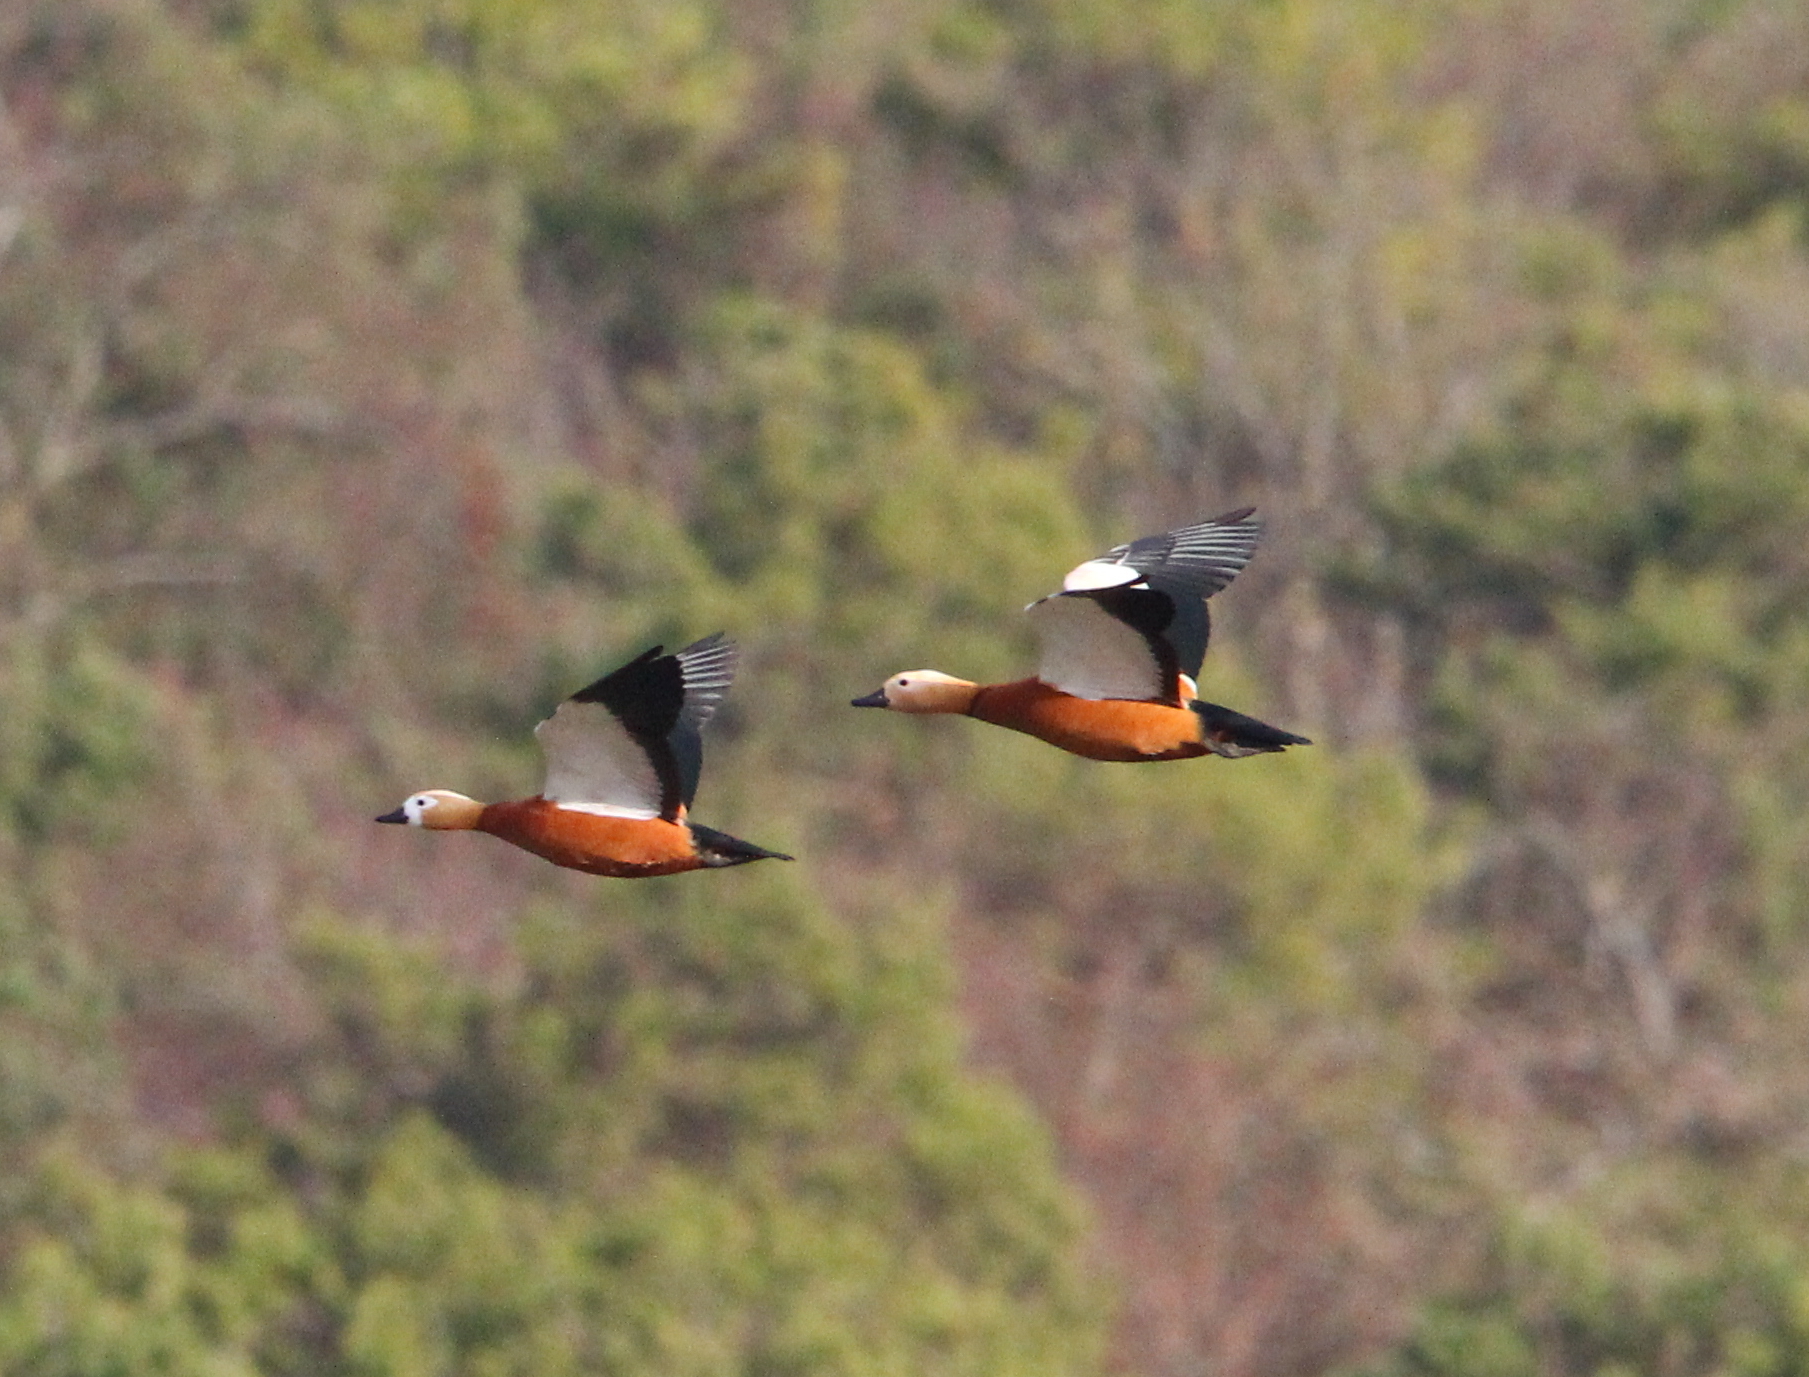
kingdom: Animalia
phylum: Chordata
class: Aves
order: Anseriformes
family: Anatidae
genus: Tadorna
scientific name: Tadorna ferruginea
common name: Ruddy shelduck
